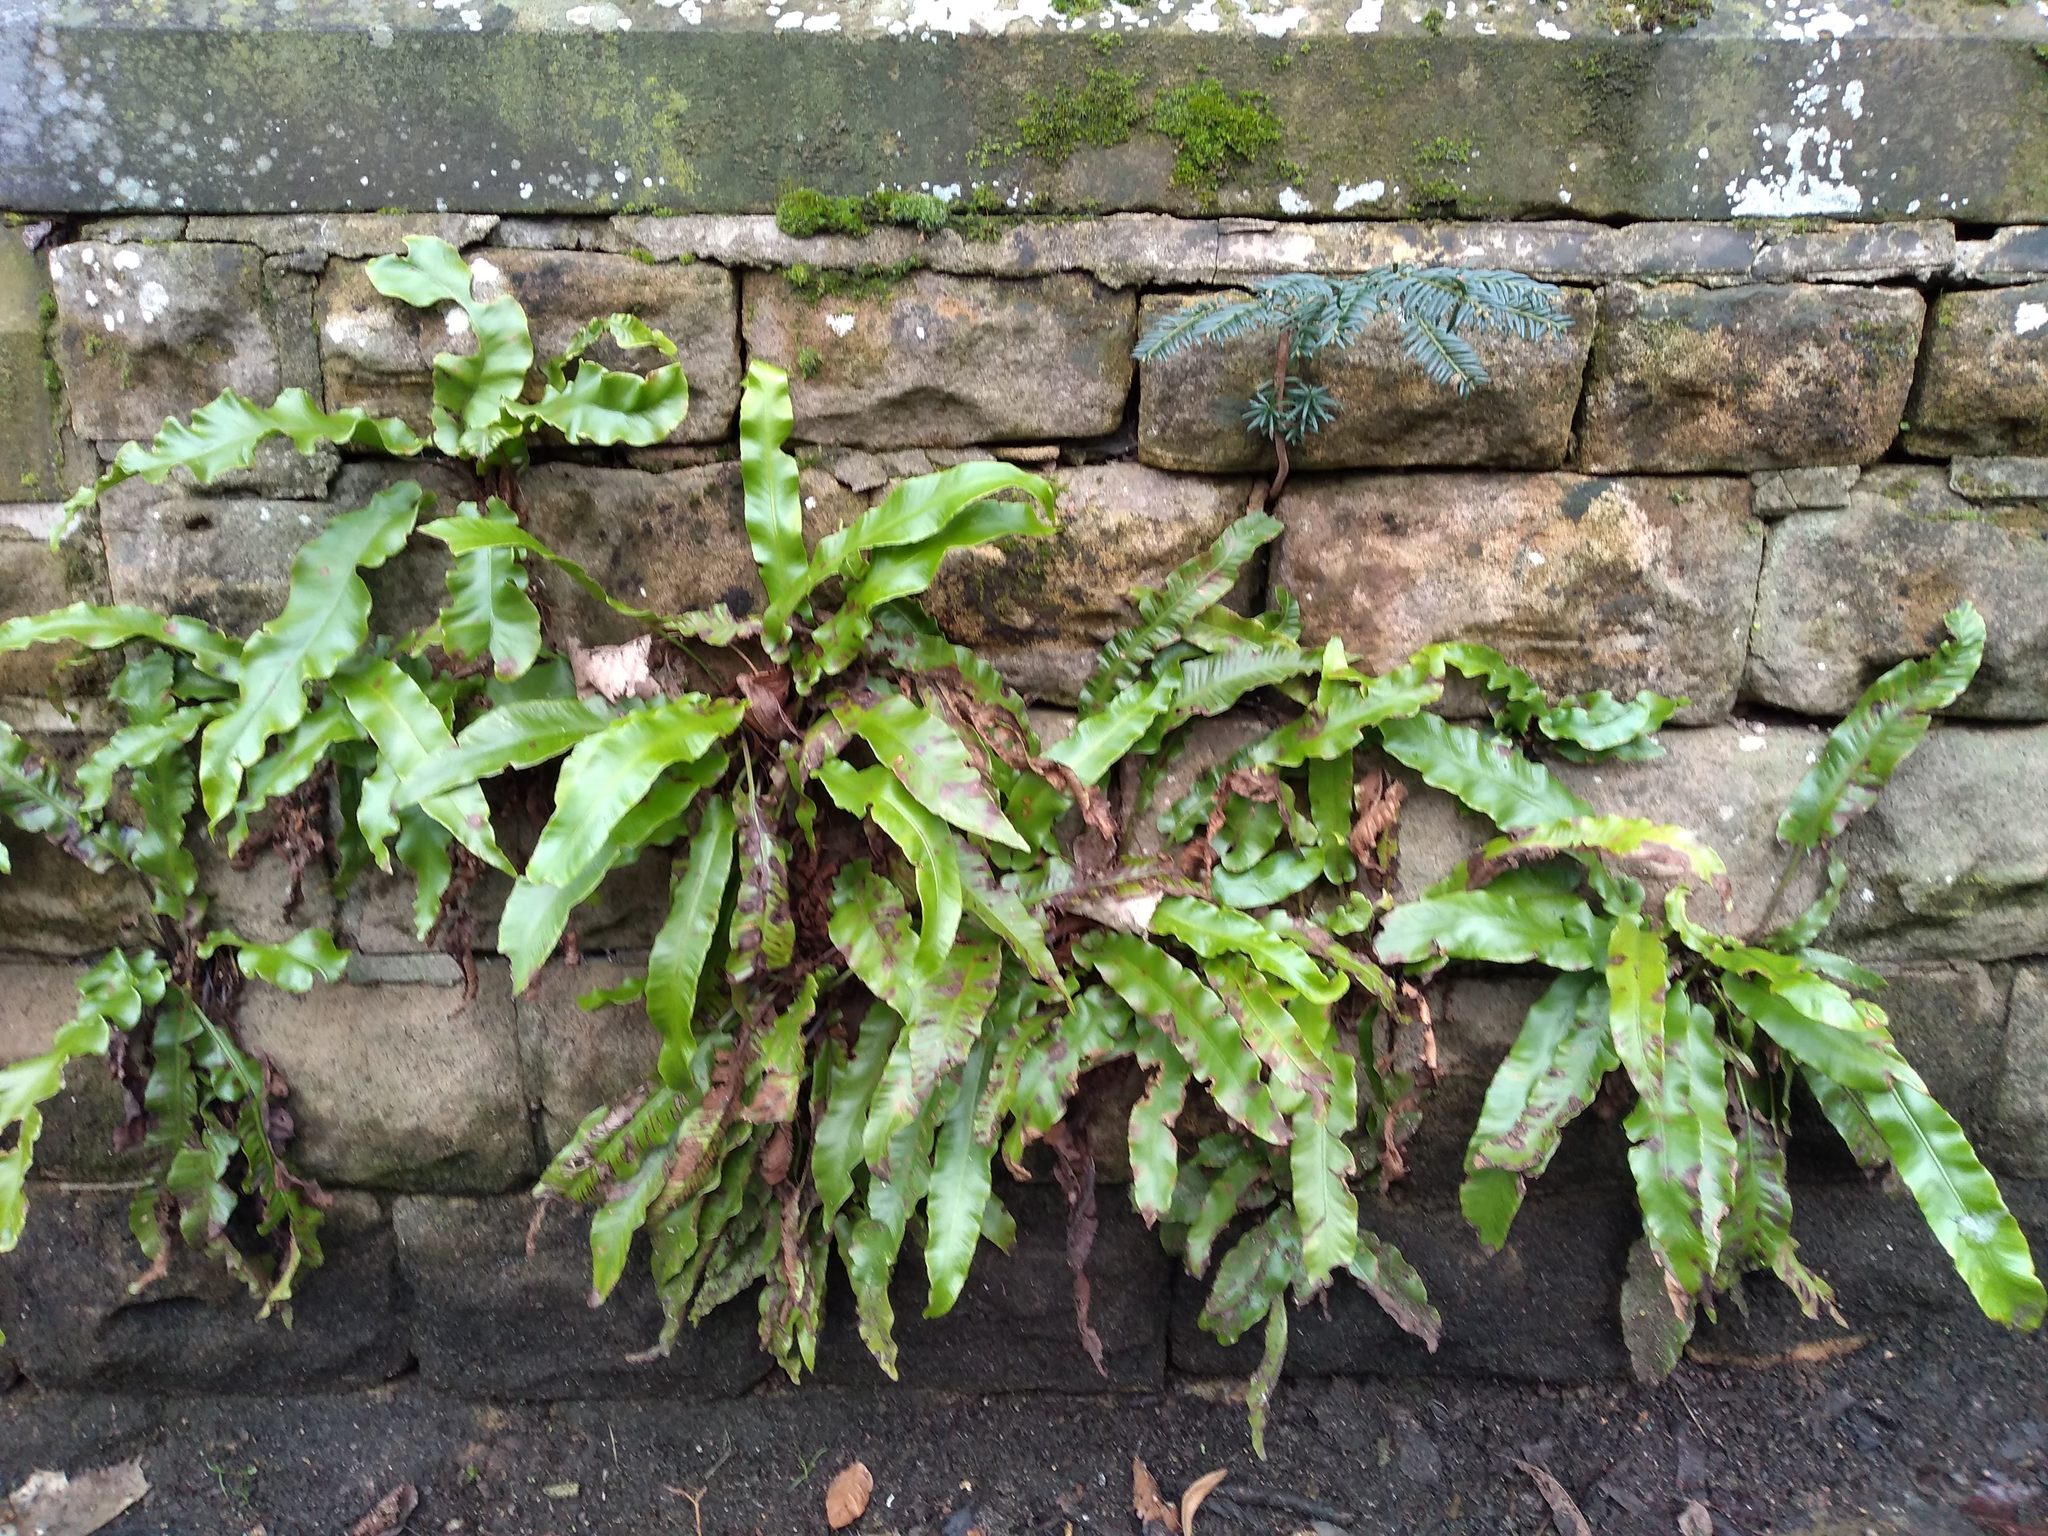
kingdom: Plantae
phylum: Tracheophyta
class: Polypodiopsida
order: Polypodiales
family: Aspleniaceae
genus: Asplenium
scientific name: Asplenium scolopendrium
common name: Hart's-tongue fern
